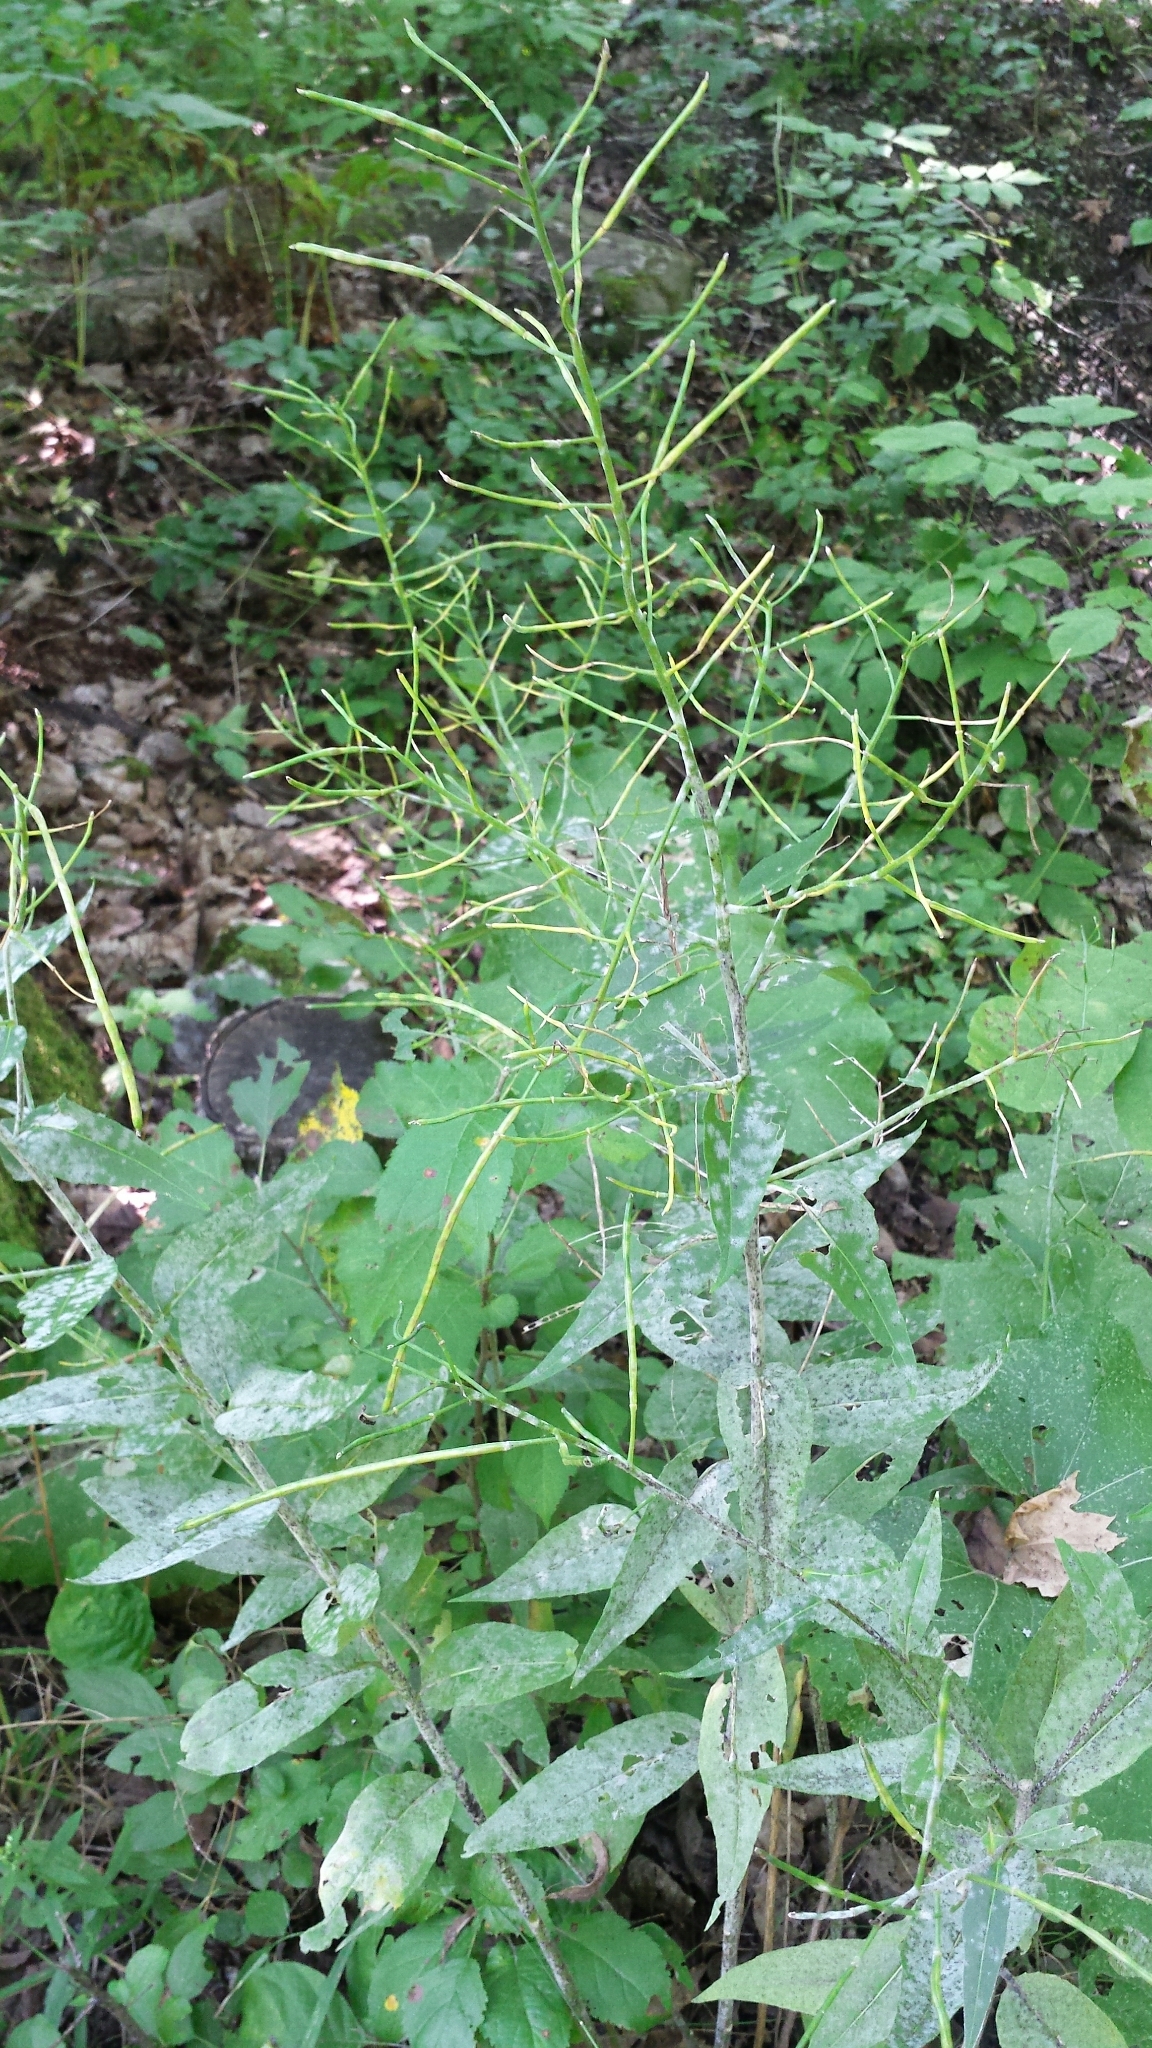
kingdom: Plantae
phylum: Tracheophyta
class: Magnoliopsida
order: Brassicales
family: Brassicaceae
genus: Hesperis
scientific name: Hesperis matronalis
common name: Dame's-violet
